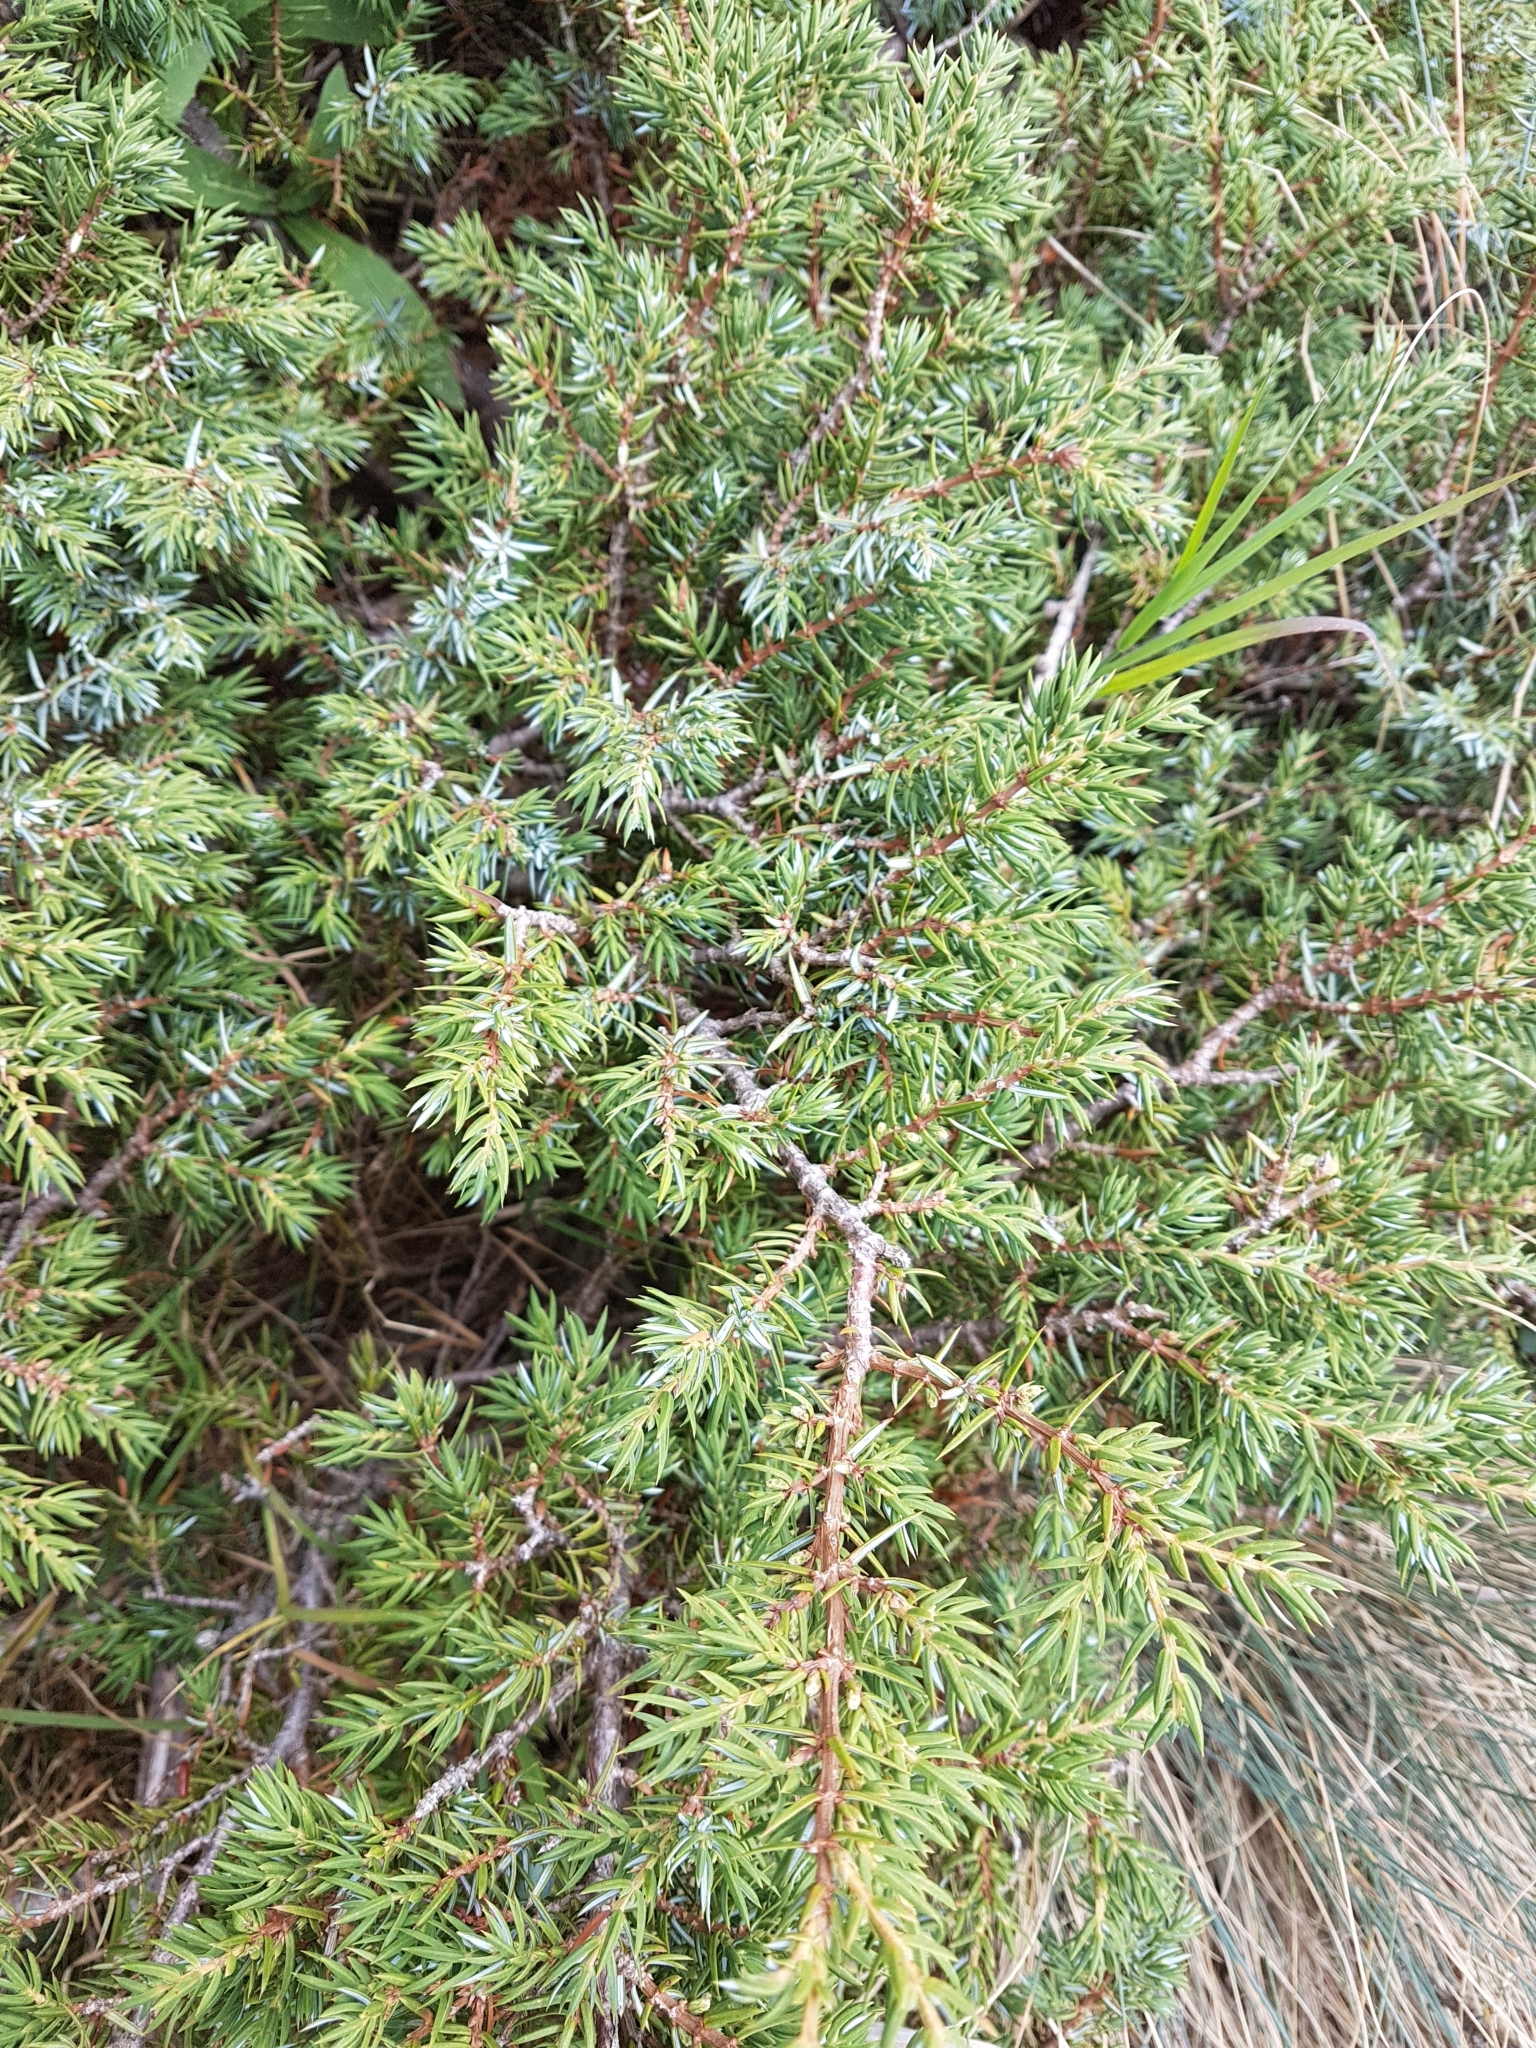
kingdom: Plantae
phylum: Tracheophyta
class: Pinopsida
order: Pinales
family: Cupressaceae
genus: Juniperus
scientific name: Juniperus communis
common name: Common juniper
